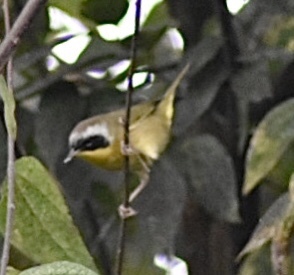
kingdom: Animalia
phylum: Chordata
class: Aves
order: Passeriformes
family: Parulidae
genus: Geothlypis
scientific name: Geothlypis trichas
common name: Common yellowthroat
